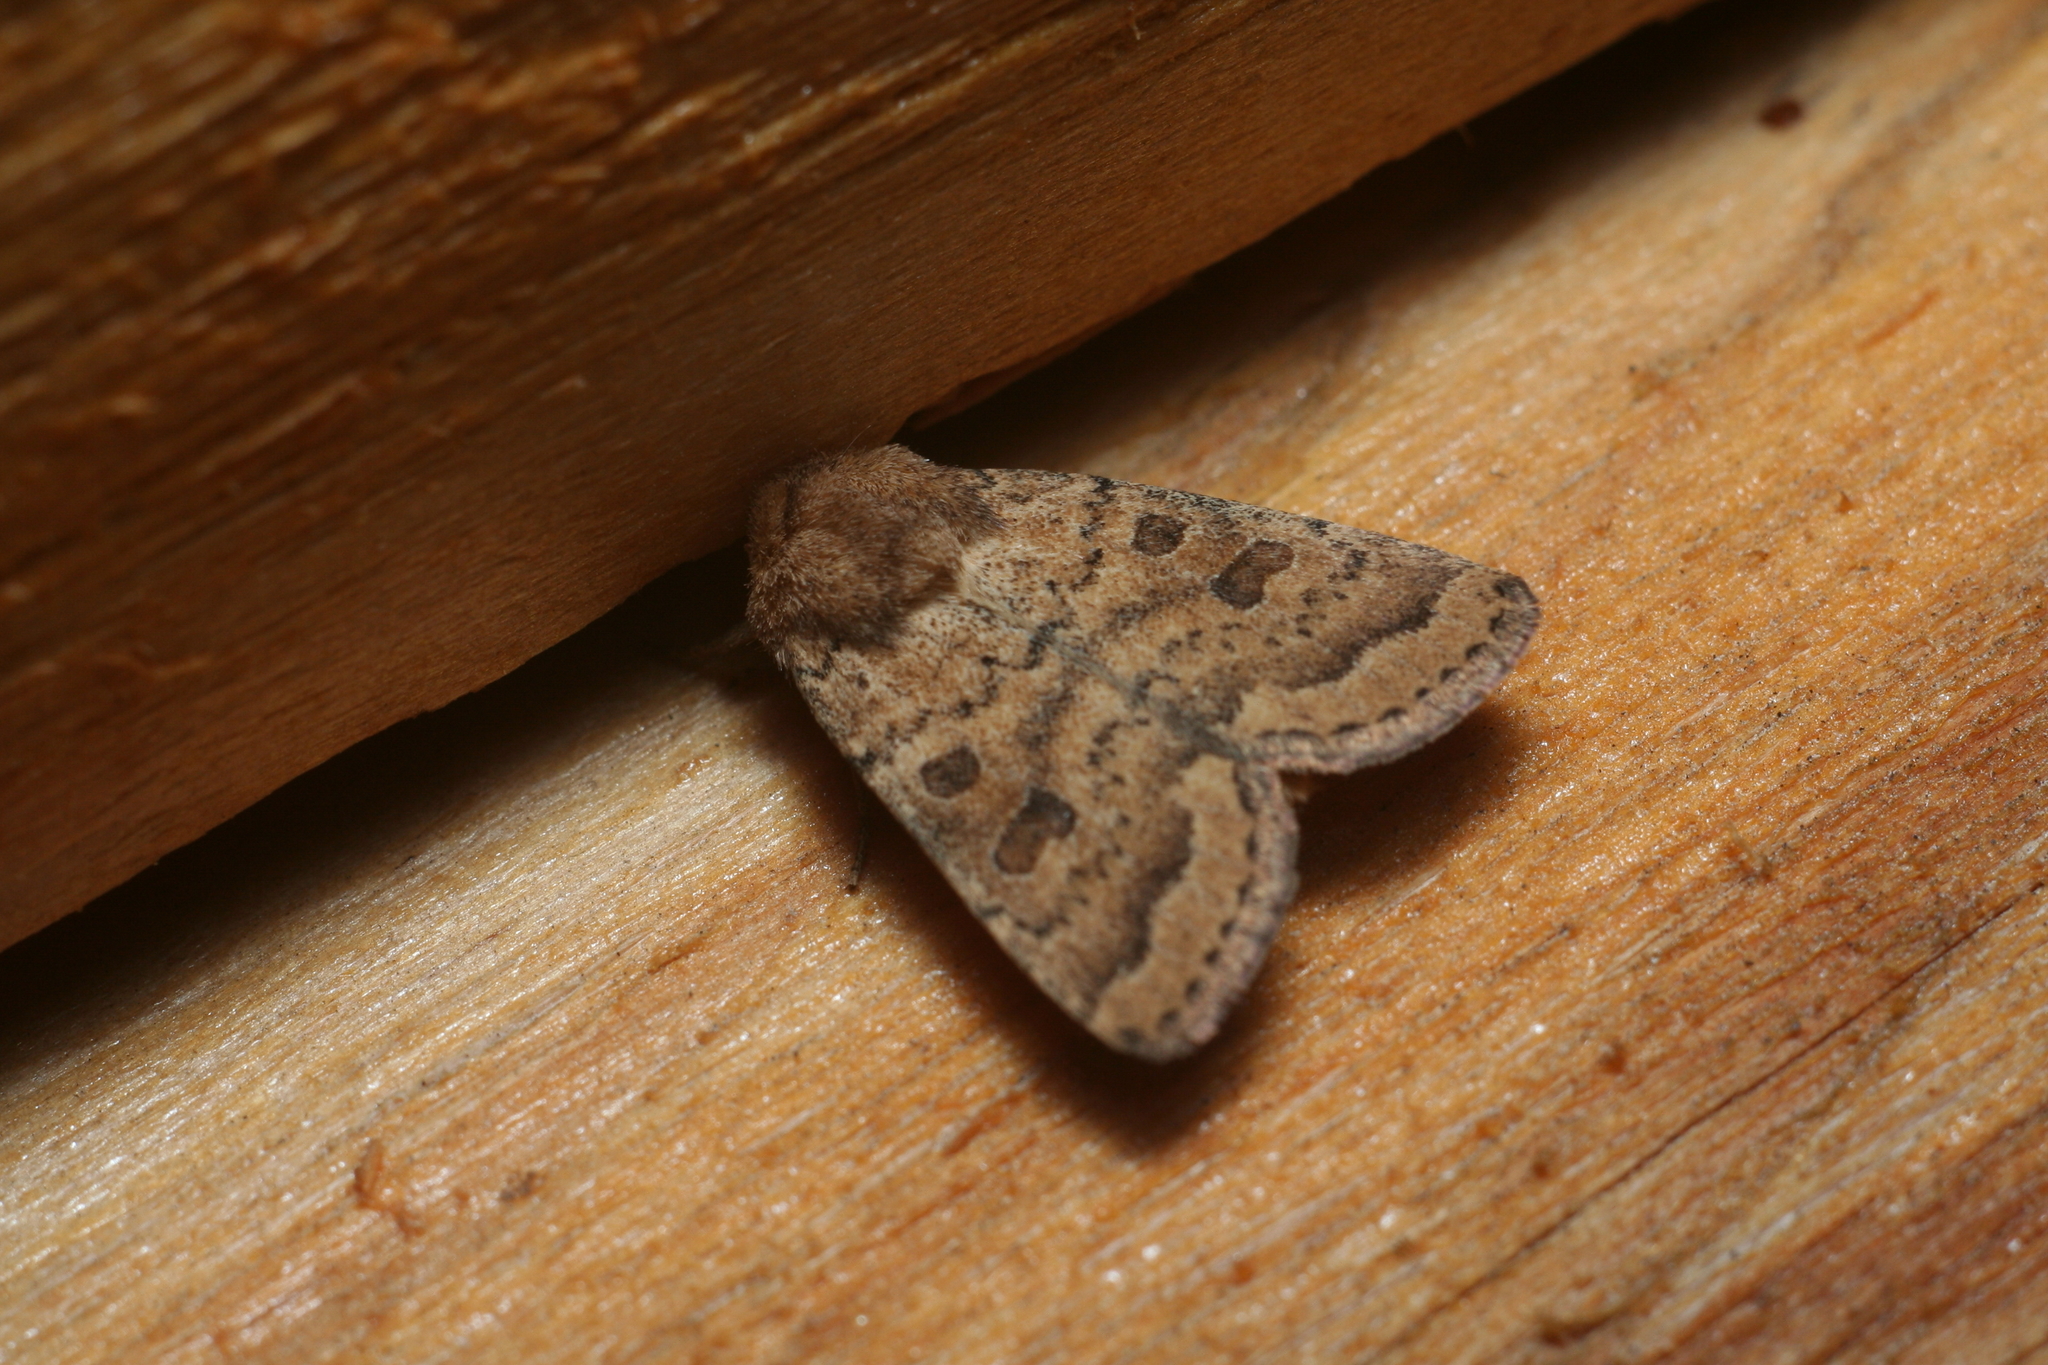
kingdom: Animalia
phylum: Arthropoda
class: Insecta
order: Lepidoptera
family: Noctuidae
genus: Hoplodrina
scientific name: Hoplodrina octogenaria
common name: Uncertain
